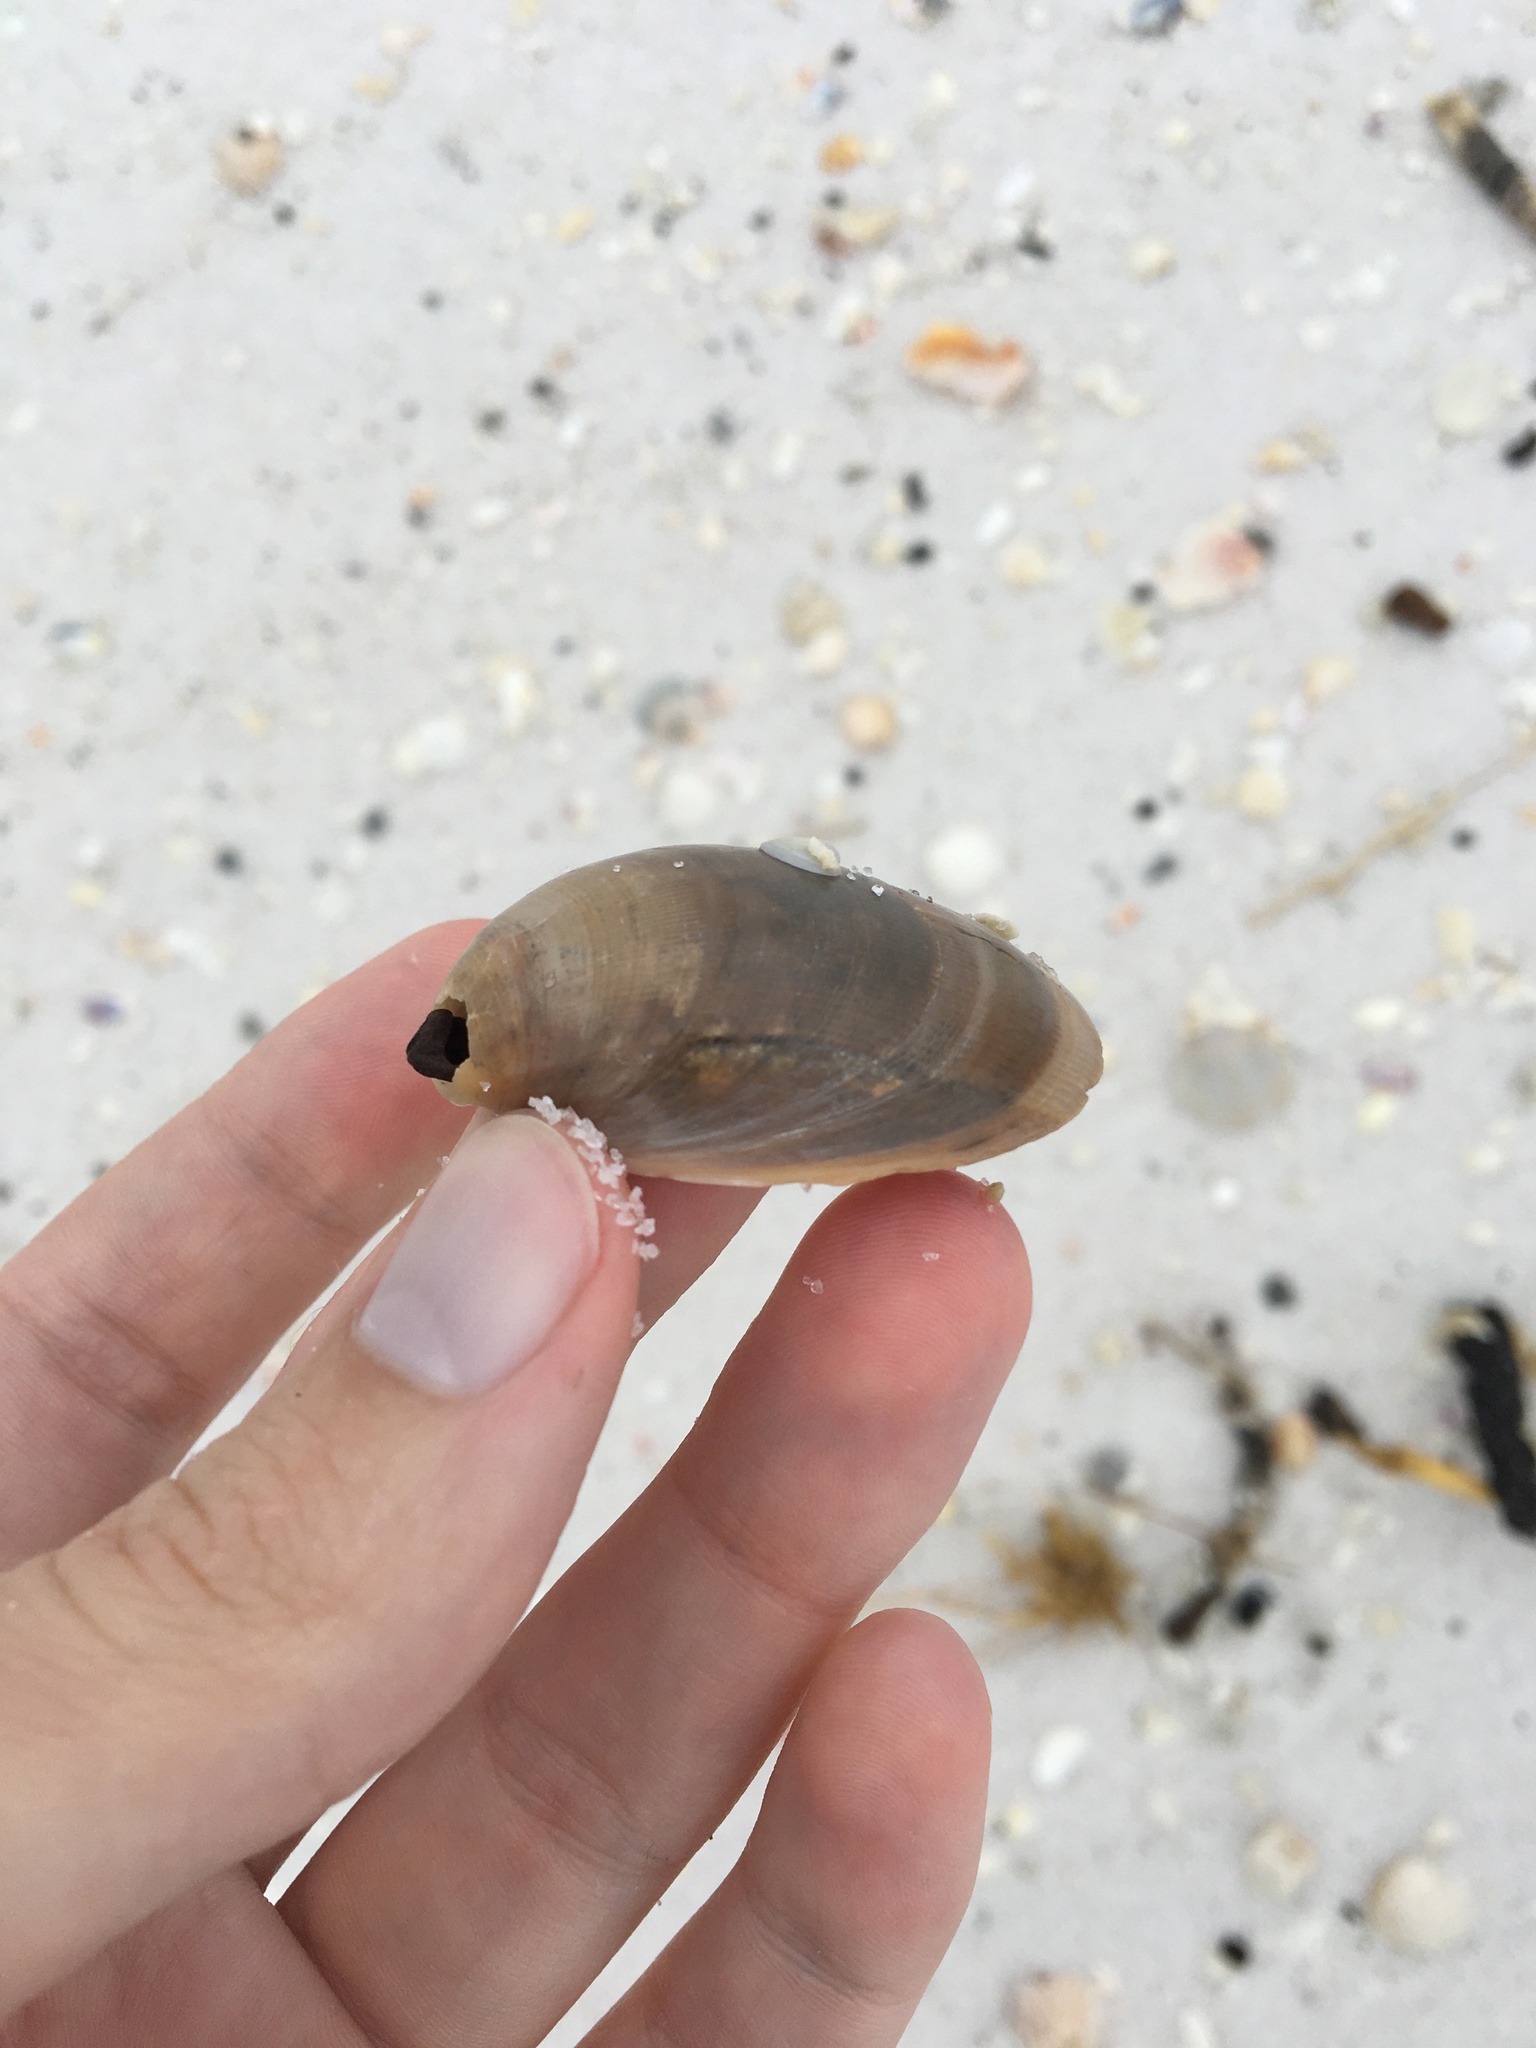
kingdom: Animalia
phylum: Mollusca
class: Bivalvia
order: Cardiida
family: Cardiidae
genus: Laevicardium
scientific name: Laevicardium serratum
